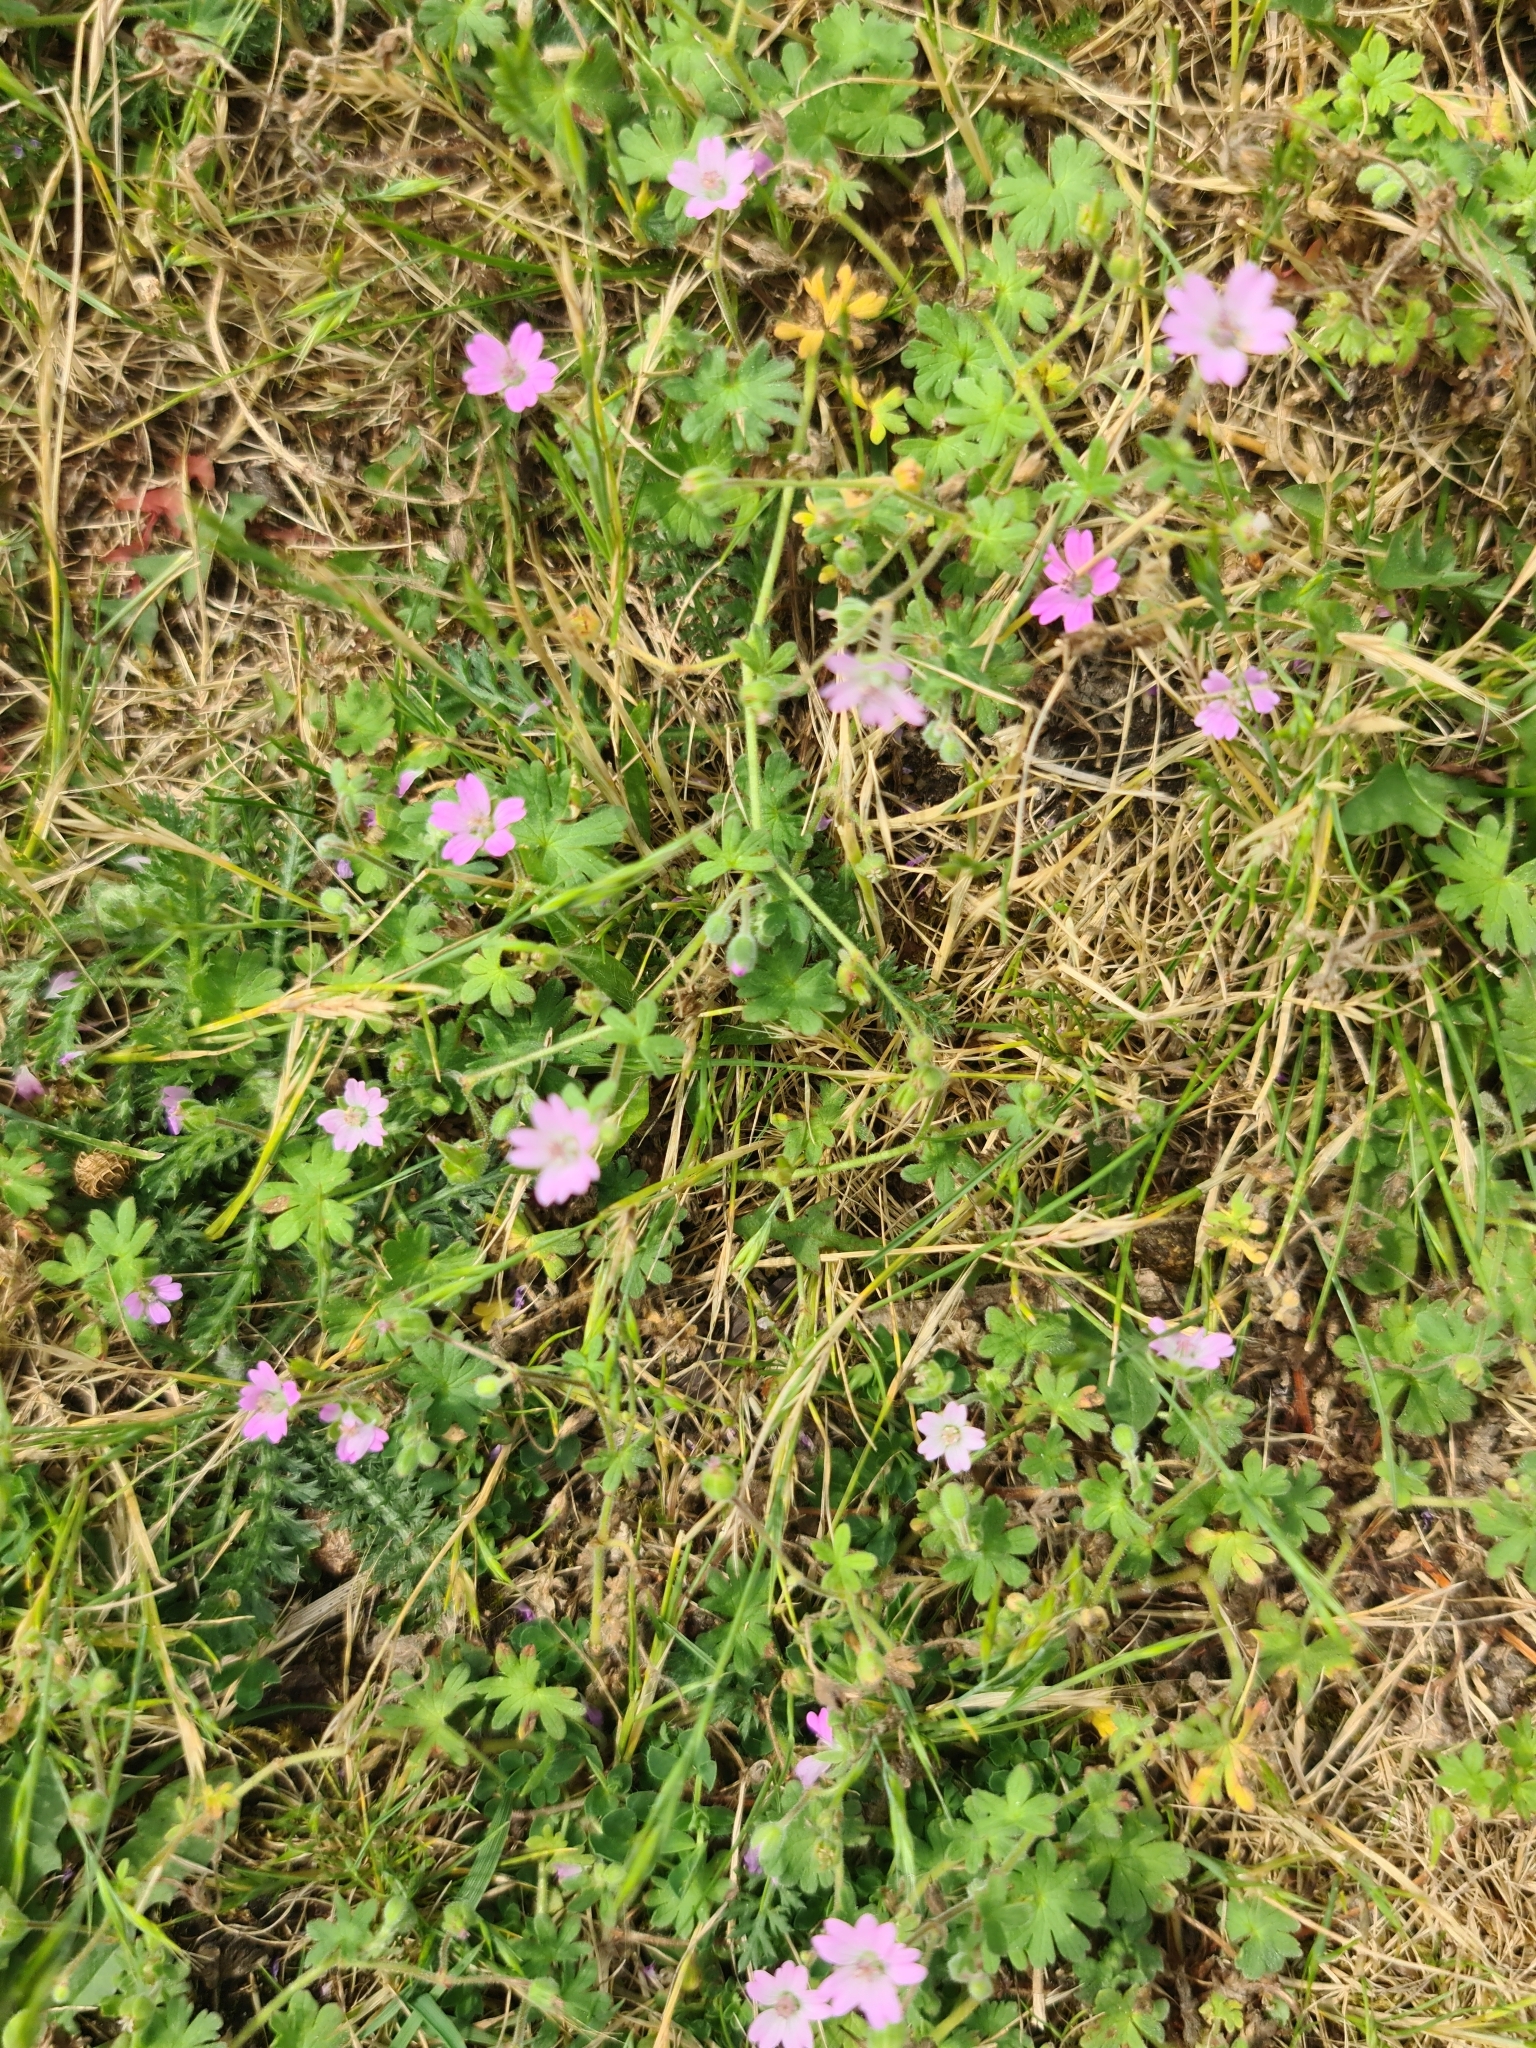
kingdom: Plantae
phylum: Tracheophyta
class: Magnoliopsida
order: Geraniales
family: Geraniaceae
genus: Geranium
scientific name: Geranium molle
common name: Dove's-foot crane's-bill
